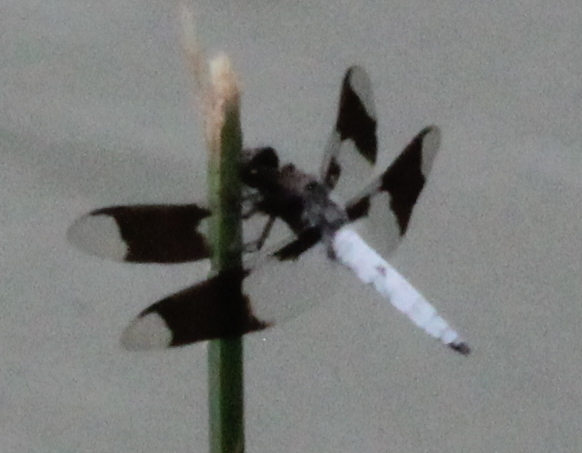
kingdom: Animalia
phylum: Arthropoda
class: Insecta
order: Odonata
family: Libellulidae
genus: Plathemis
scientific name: Plathemis lydia
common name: Common whitetail
